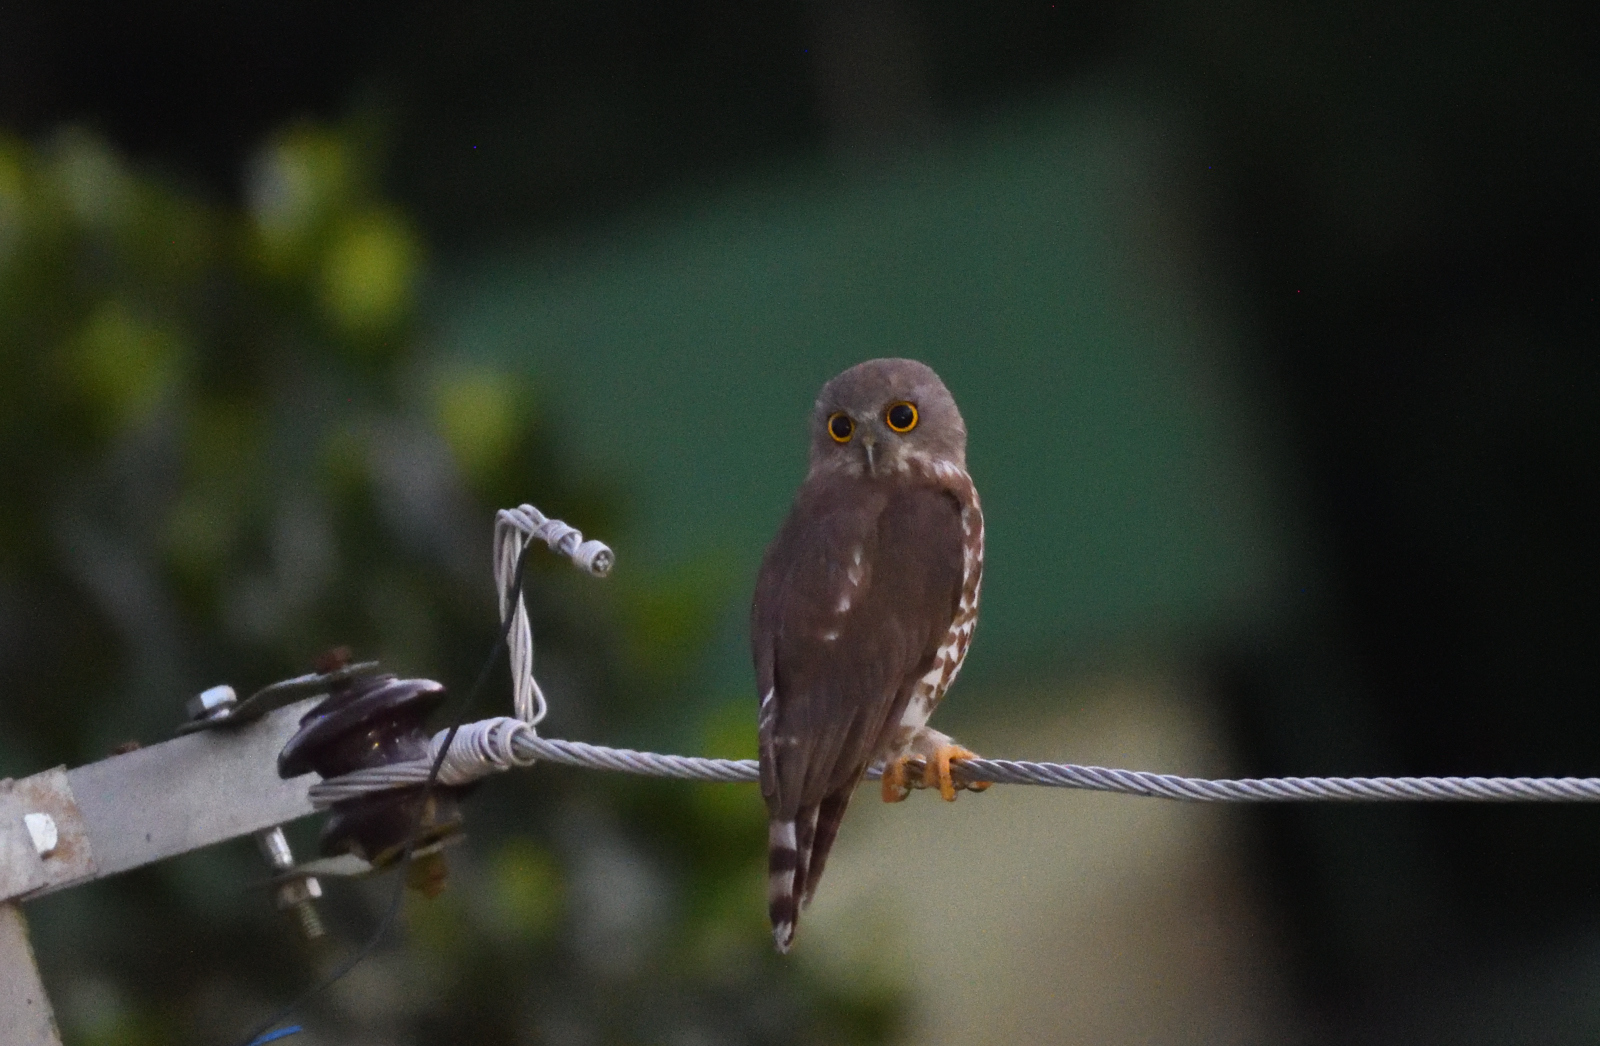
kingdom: Animalia
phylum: Chordata
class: Aves
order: Strigiformes
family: Strigidae
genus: Ninox
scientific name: Ninox scutulata
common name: Brown hawk-owl
